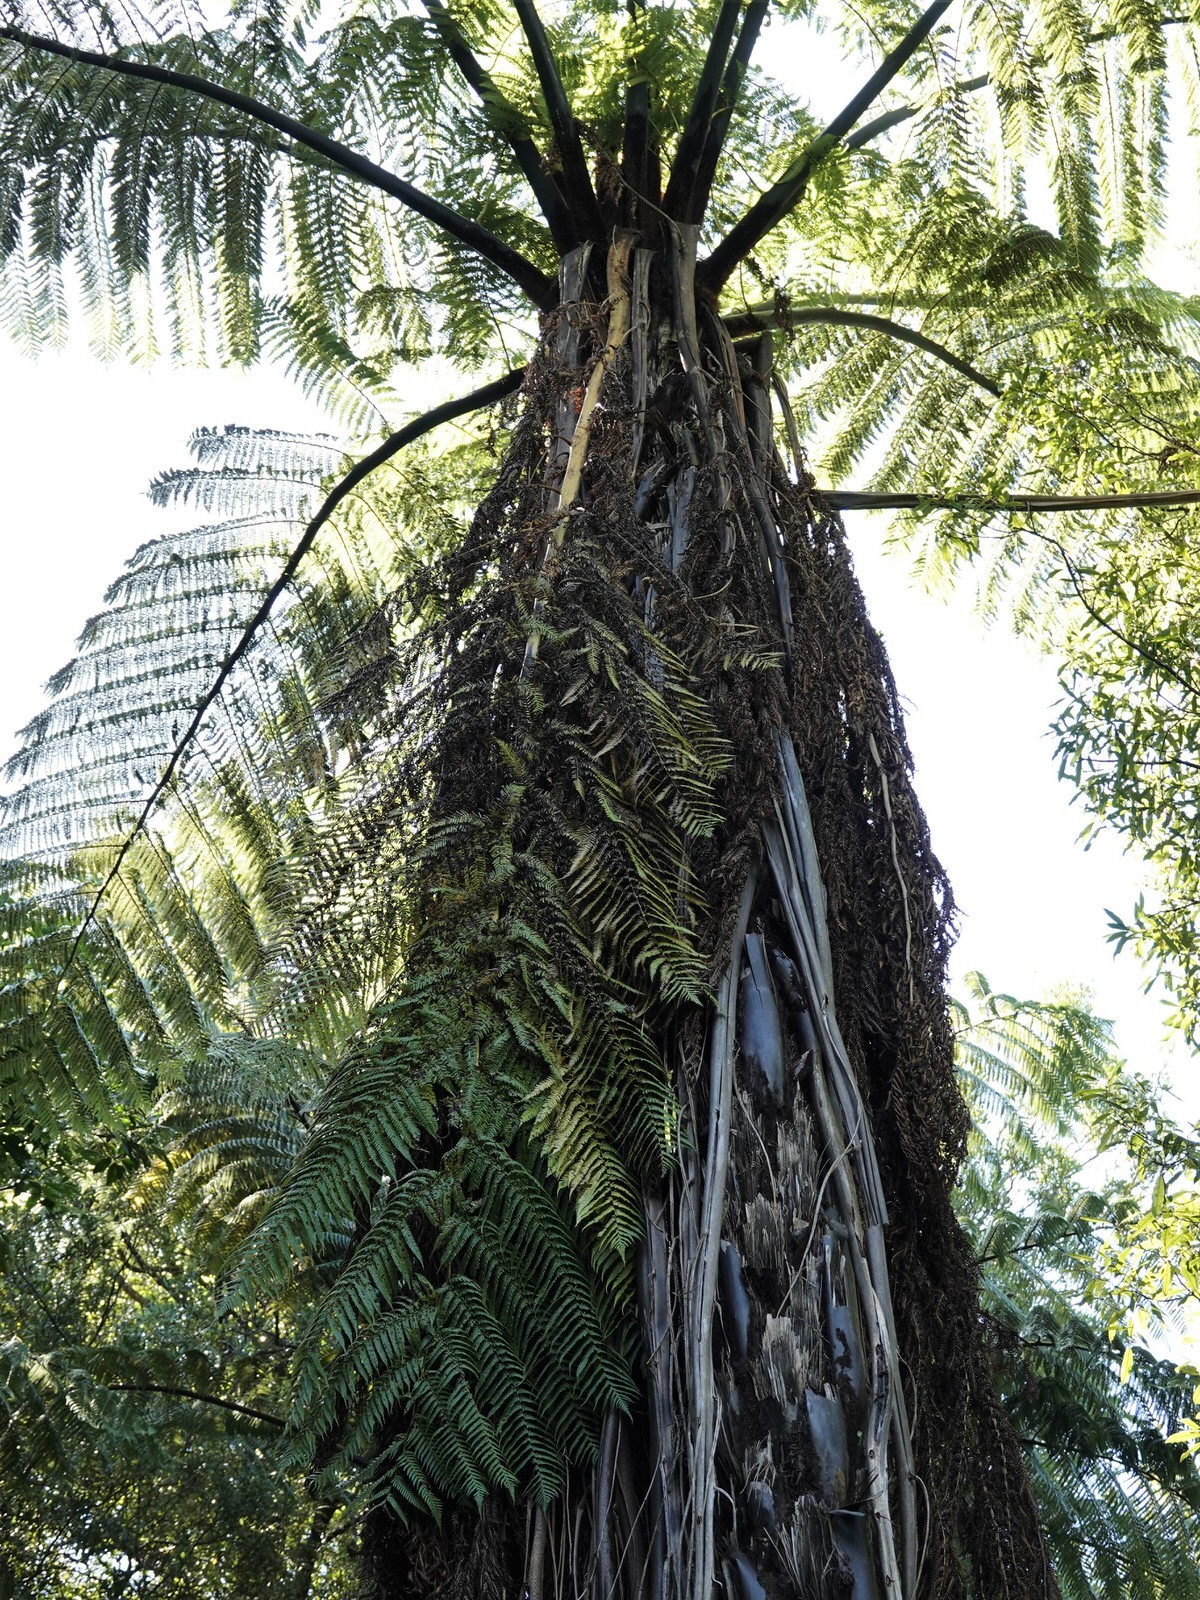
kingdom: Plantae
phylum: Tracheophyta
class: Polypodiopsida
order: Cyatheales
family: Cyatheaceae
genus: Sphaeropteris
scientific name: Sphaeropteris medullaris
